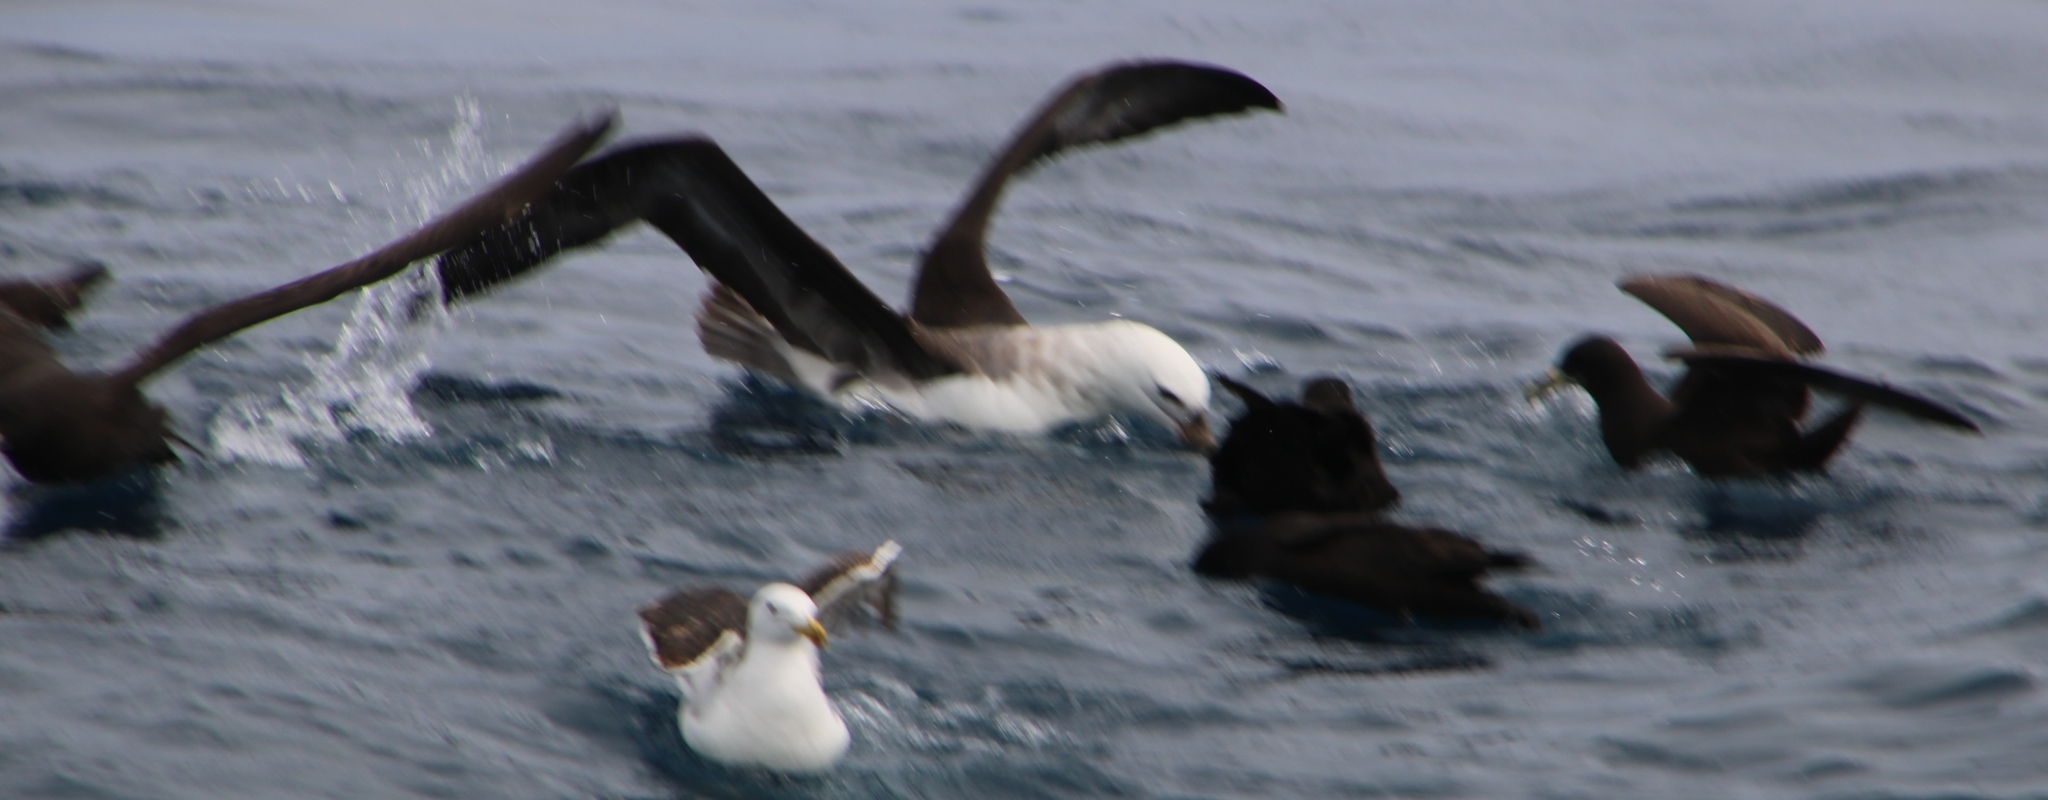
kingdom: Animalia
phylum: Chordata
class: Aves
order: Procellariiformes
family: Diomedeidae
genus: Thalassarche
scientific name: Thalassarche melanophris
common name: Black-browed albatross
